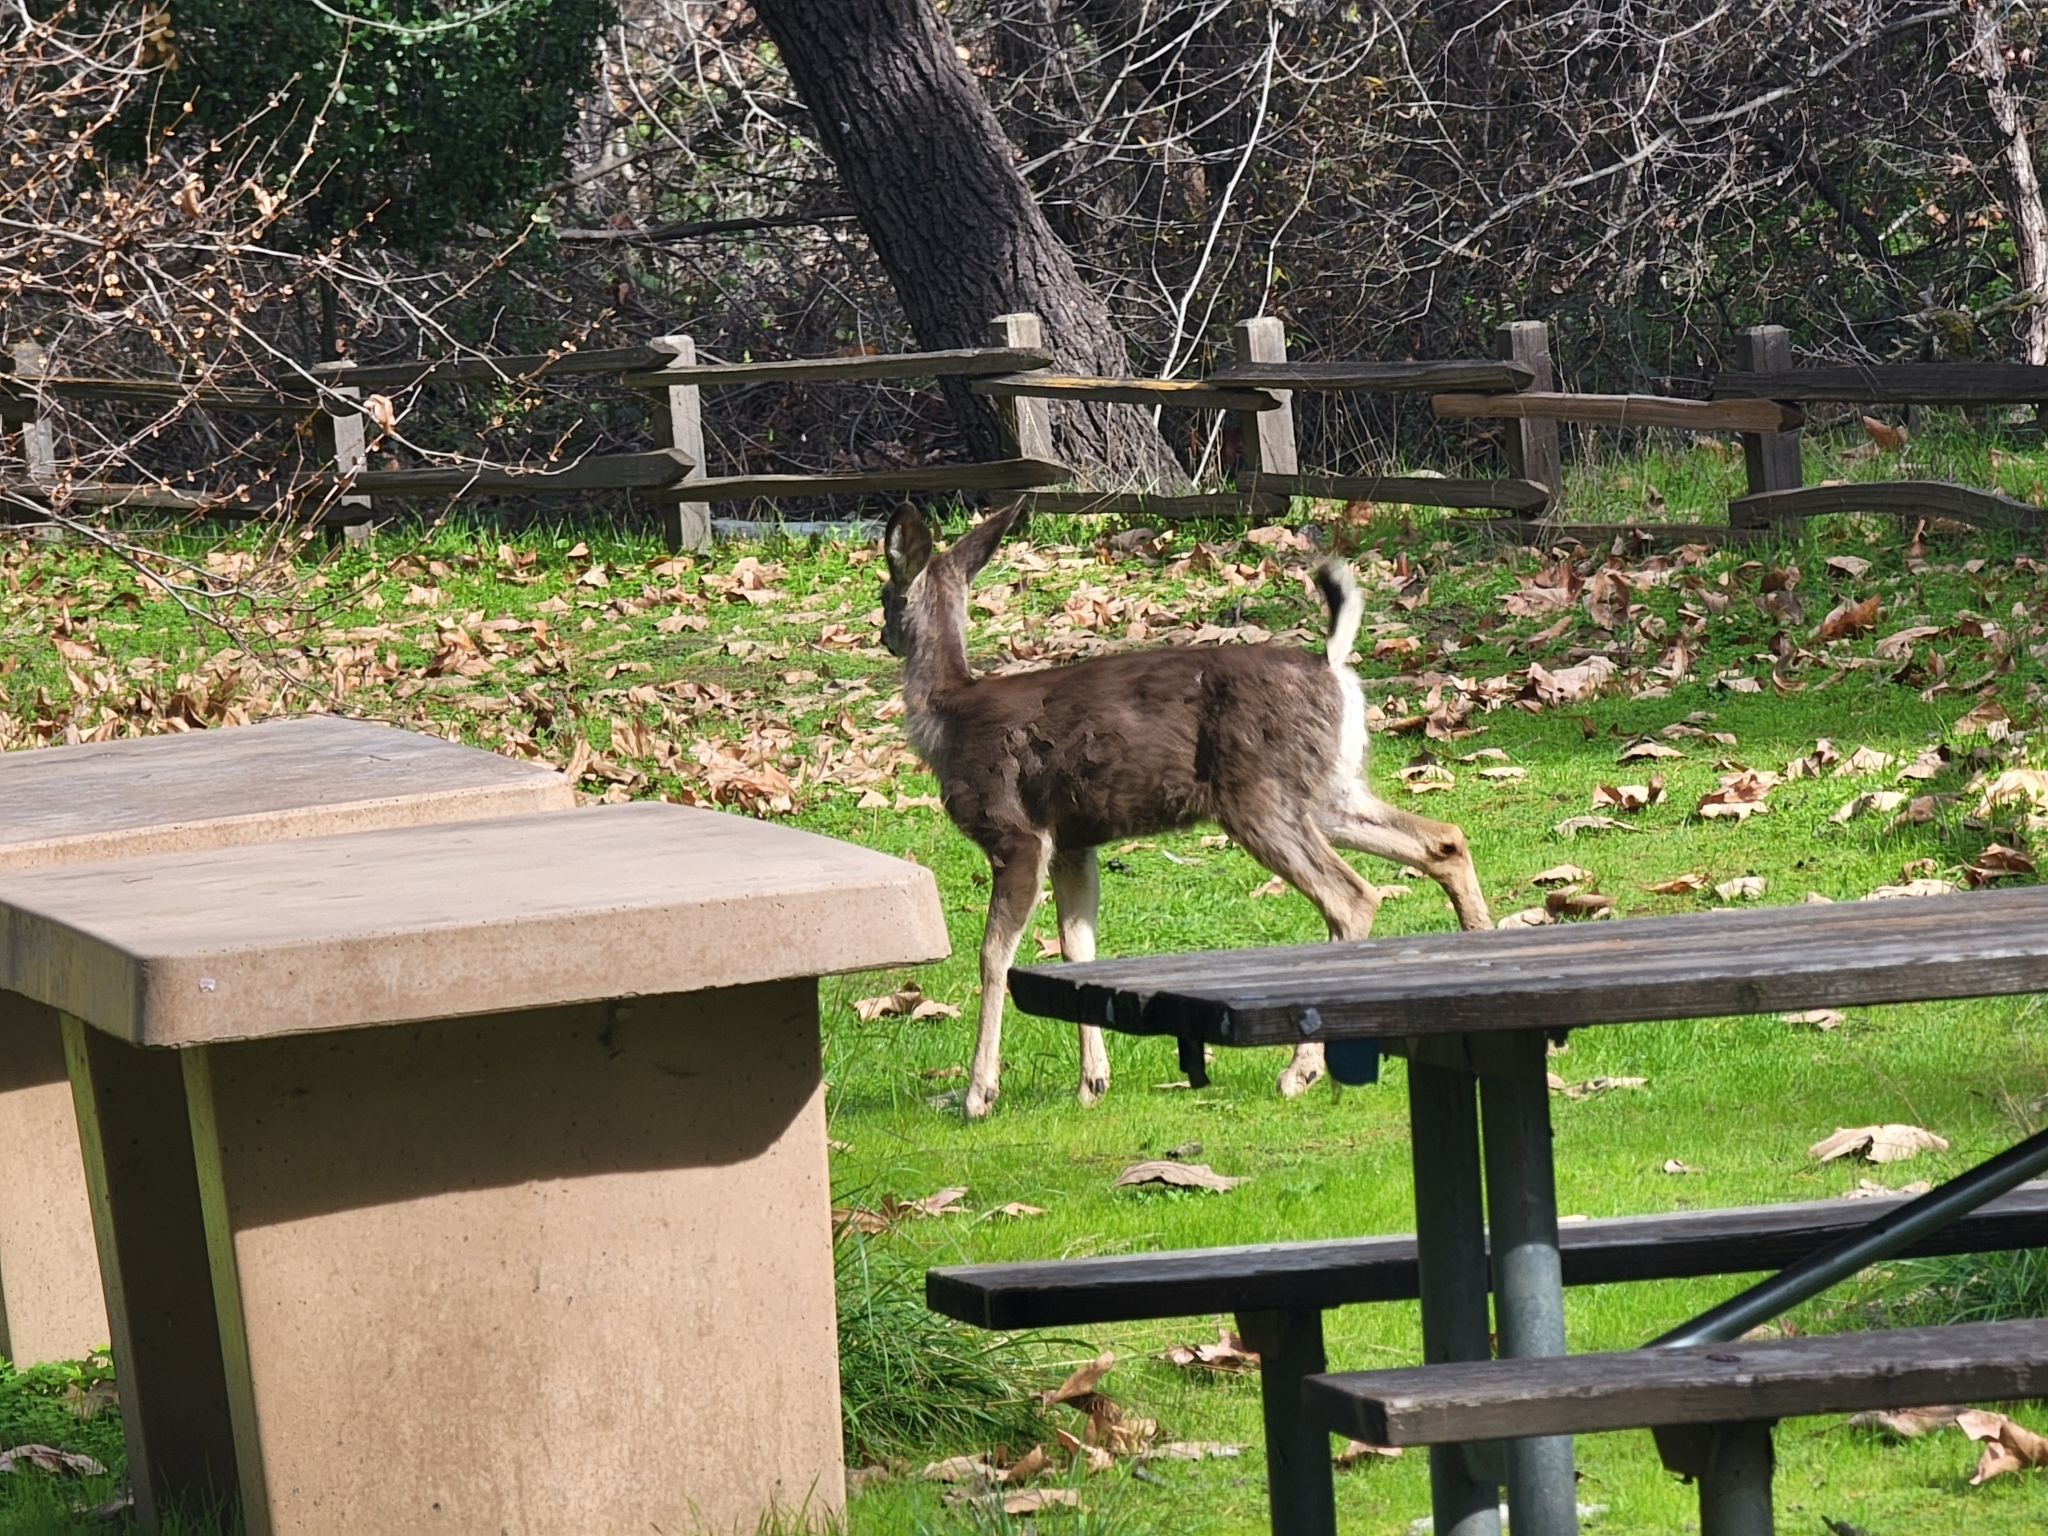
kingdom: Animalia
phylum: Chordata
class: Mammalia
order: Artiodactyla
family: Cervidae
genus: Odocoileus
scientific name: Odocoileus hemionus
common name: Mule deer
